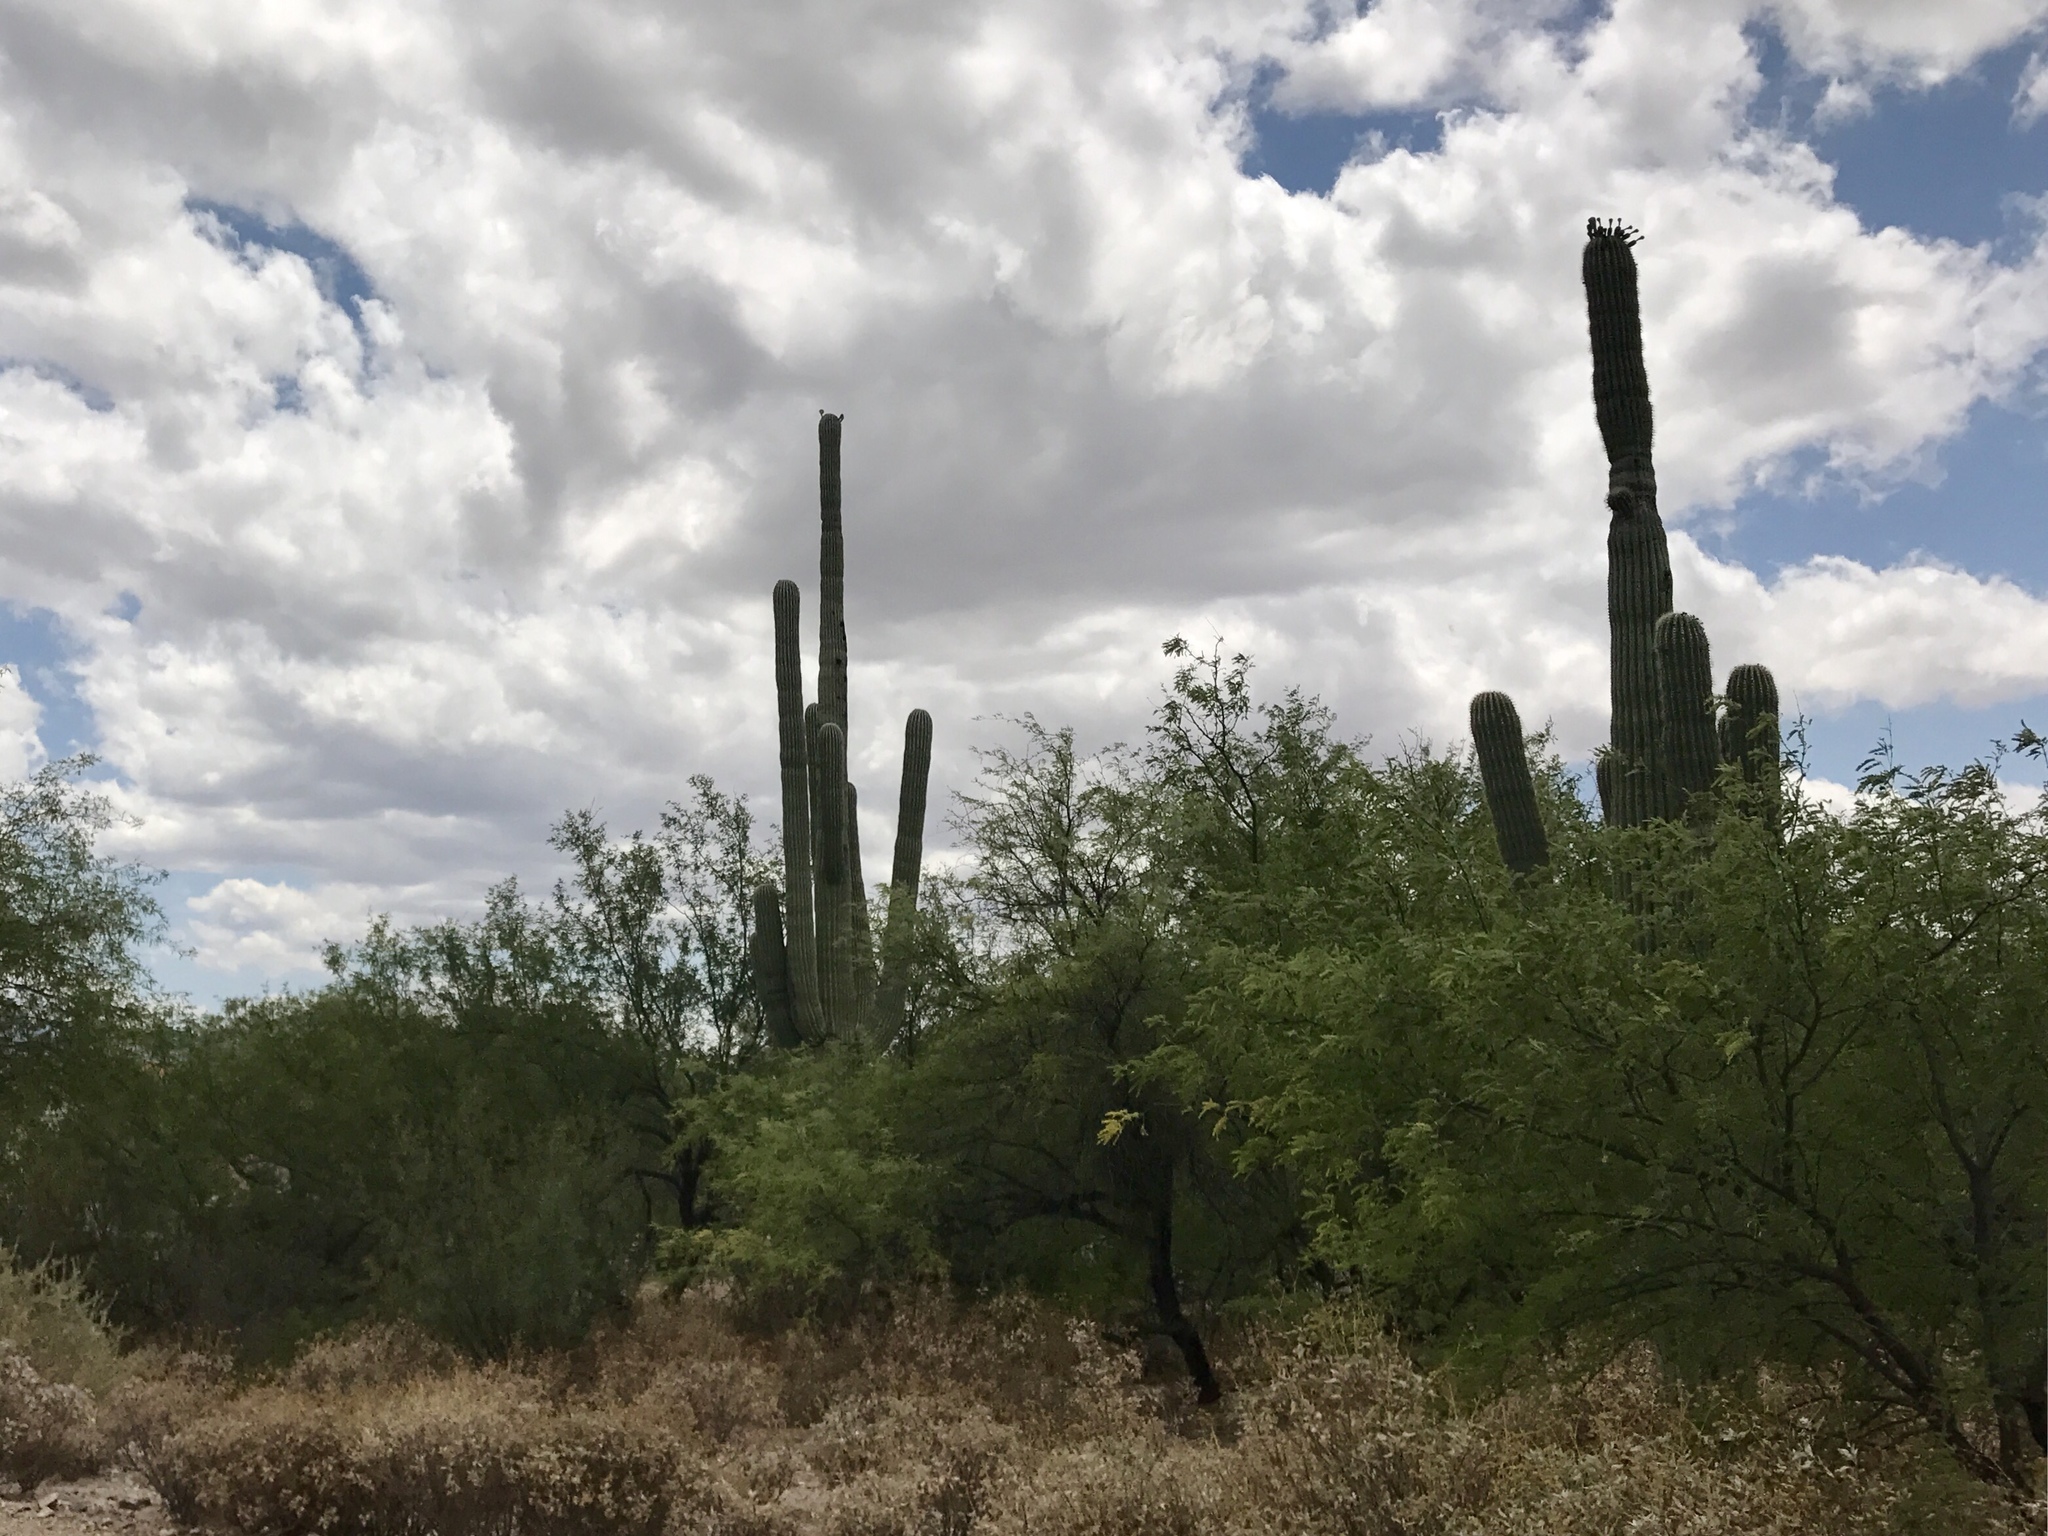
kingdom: Plantae
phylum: Tracheophyta
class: Magnoliopsida
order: Caryophyllales
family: Cactaceae
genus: Carnegiea
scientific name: Carnegiea gigantea
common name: Saguaro
